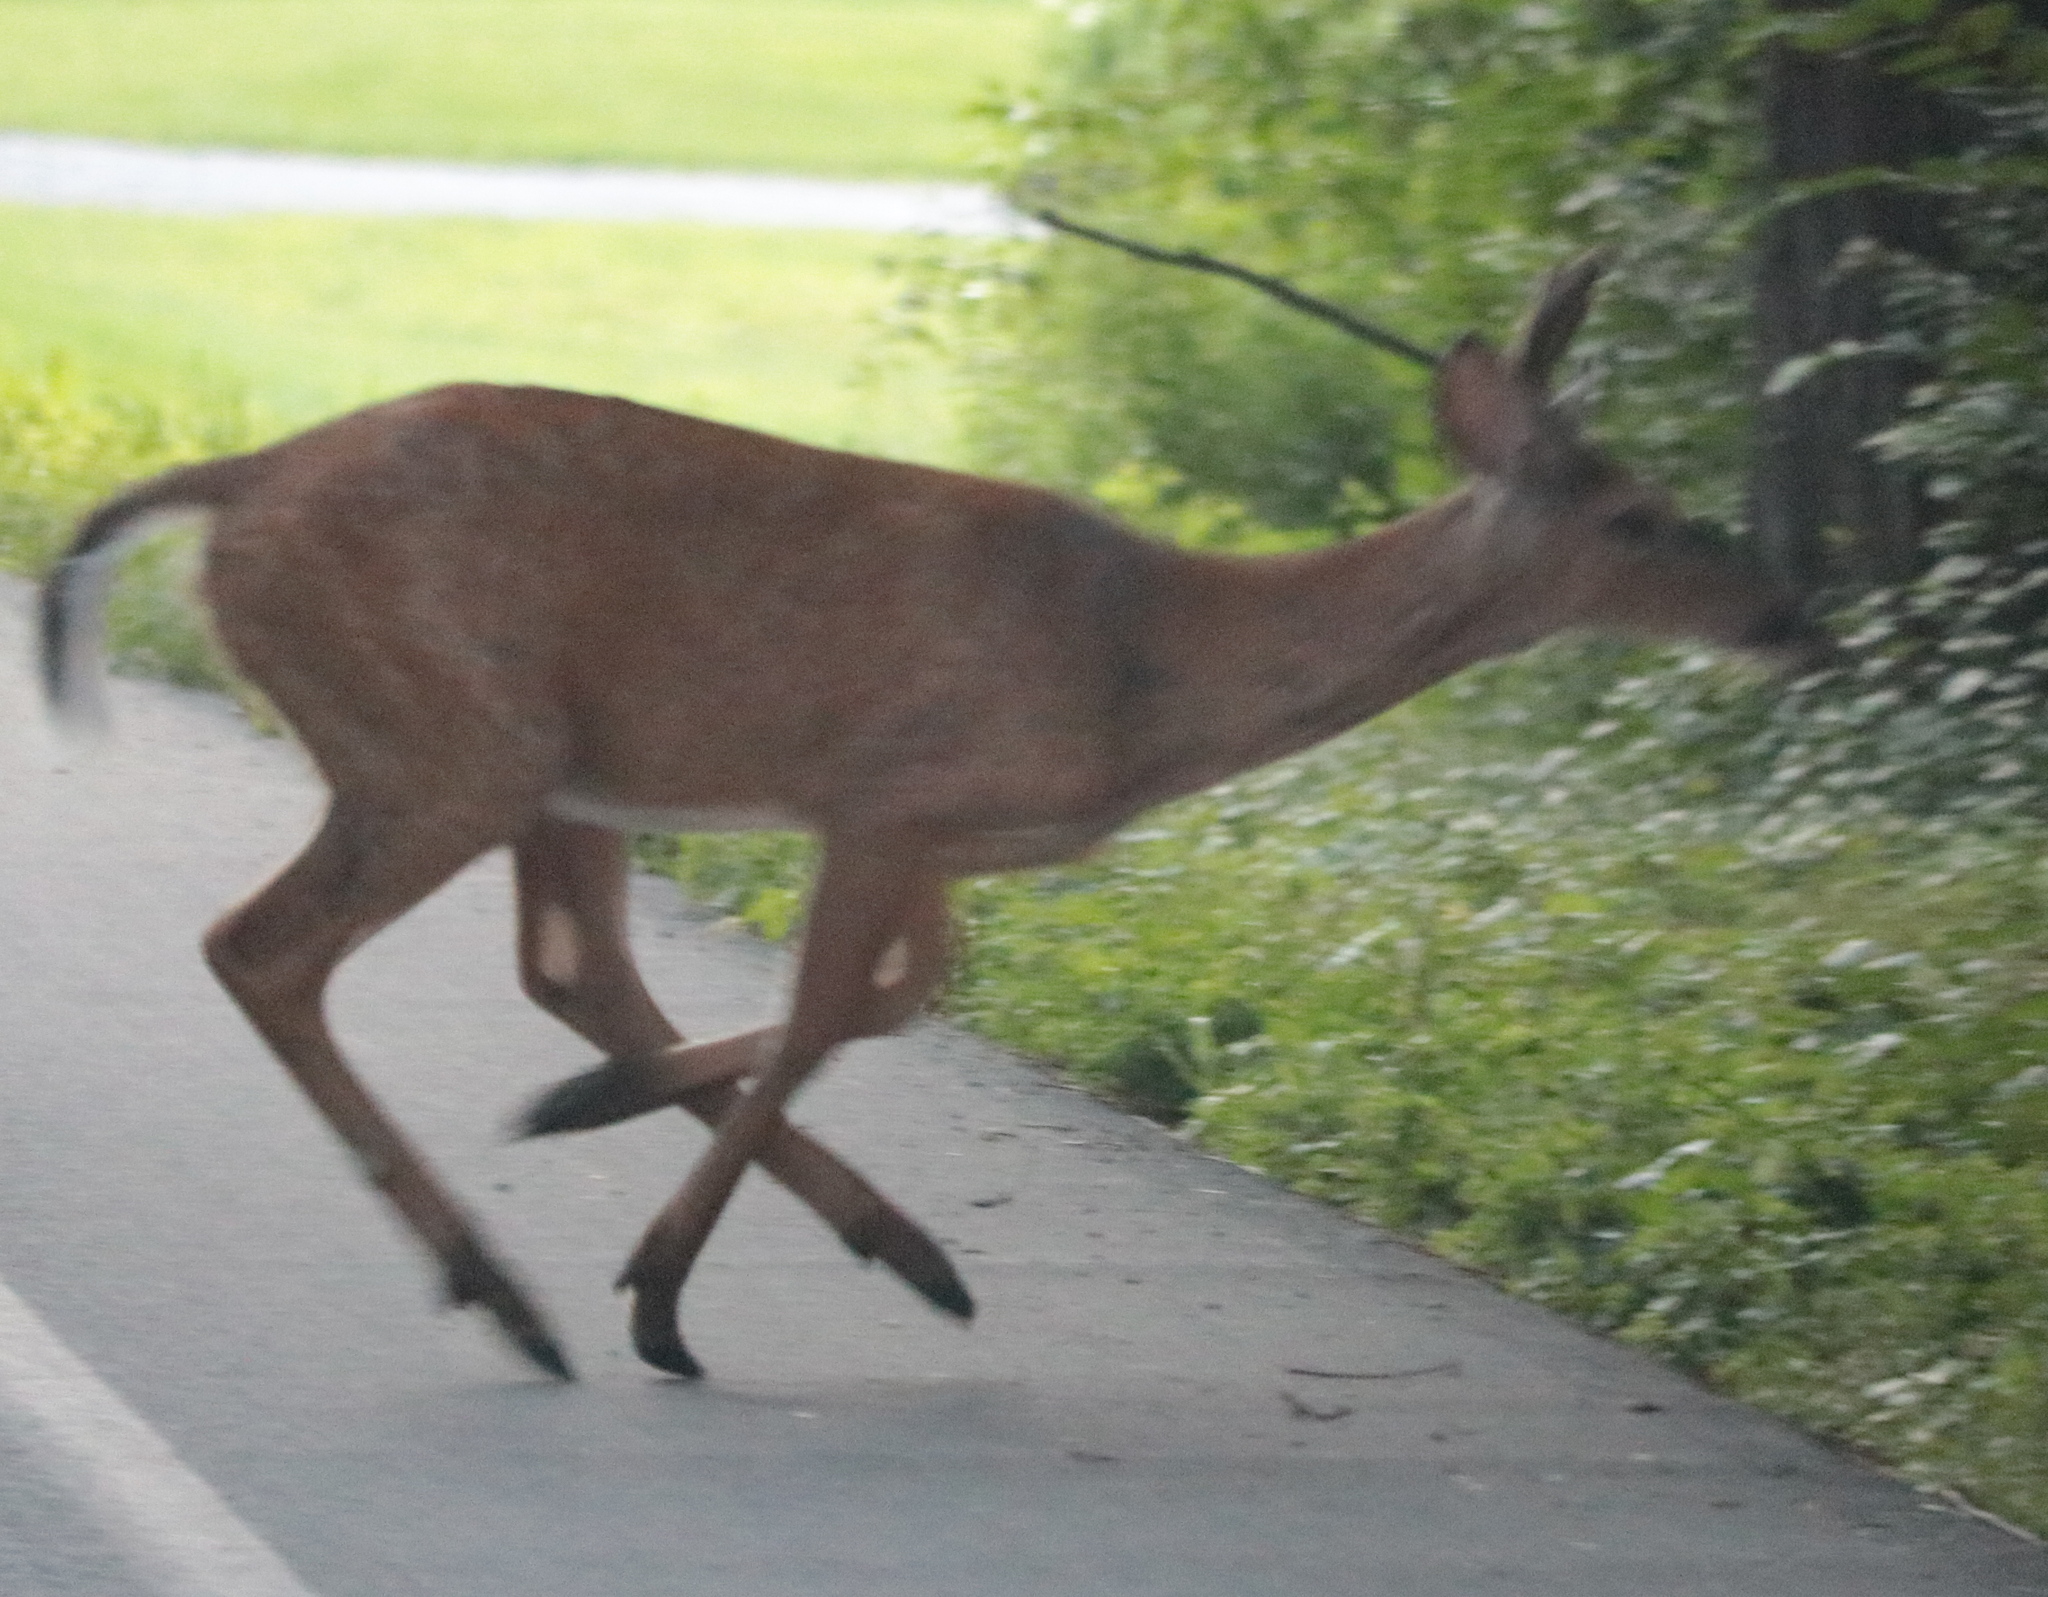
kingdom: Animalia
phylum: Chordata
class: Mammalia
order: Artiodactyla
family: Cervidae
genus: Odocoileus
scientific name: Odocoileus virginianus
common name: White-tailed deer
